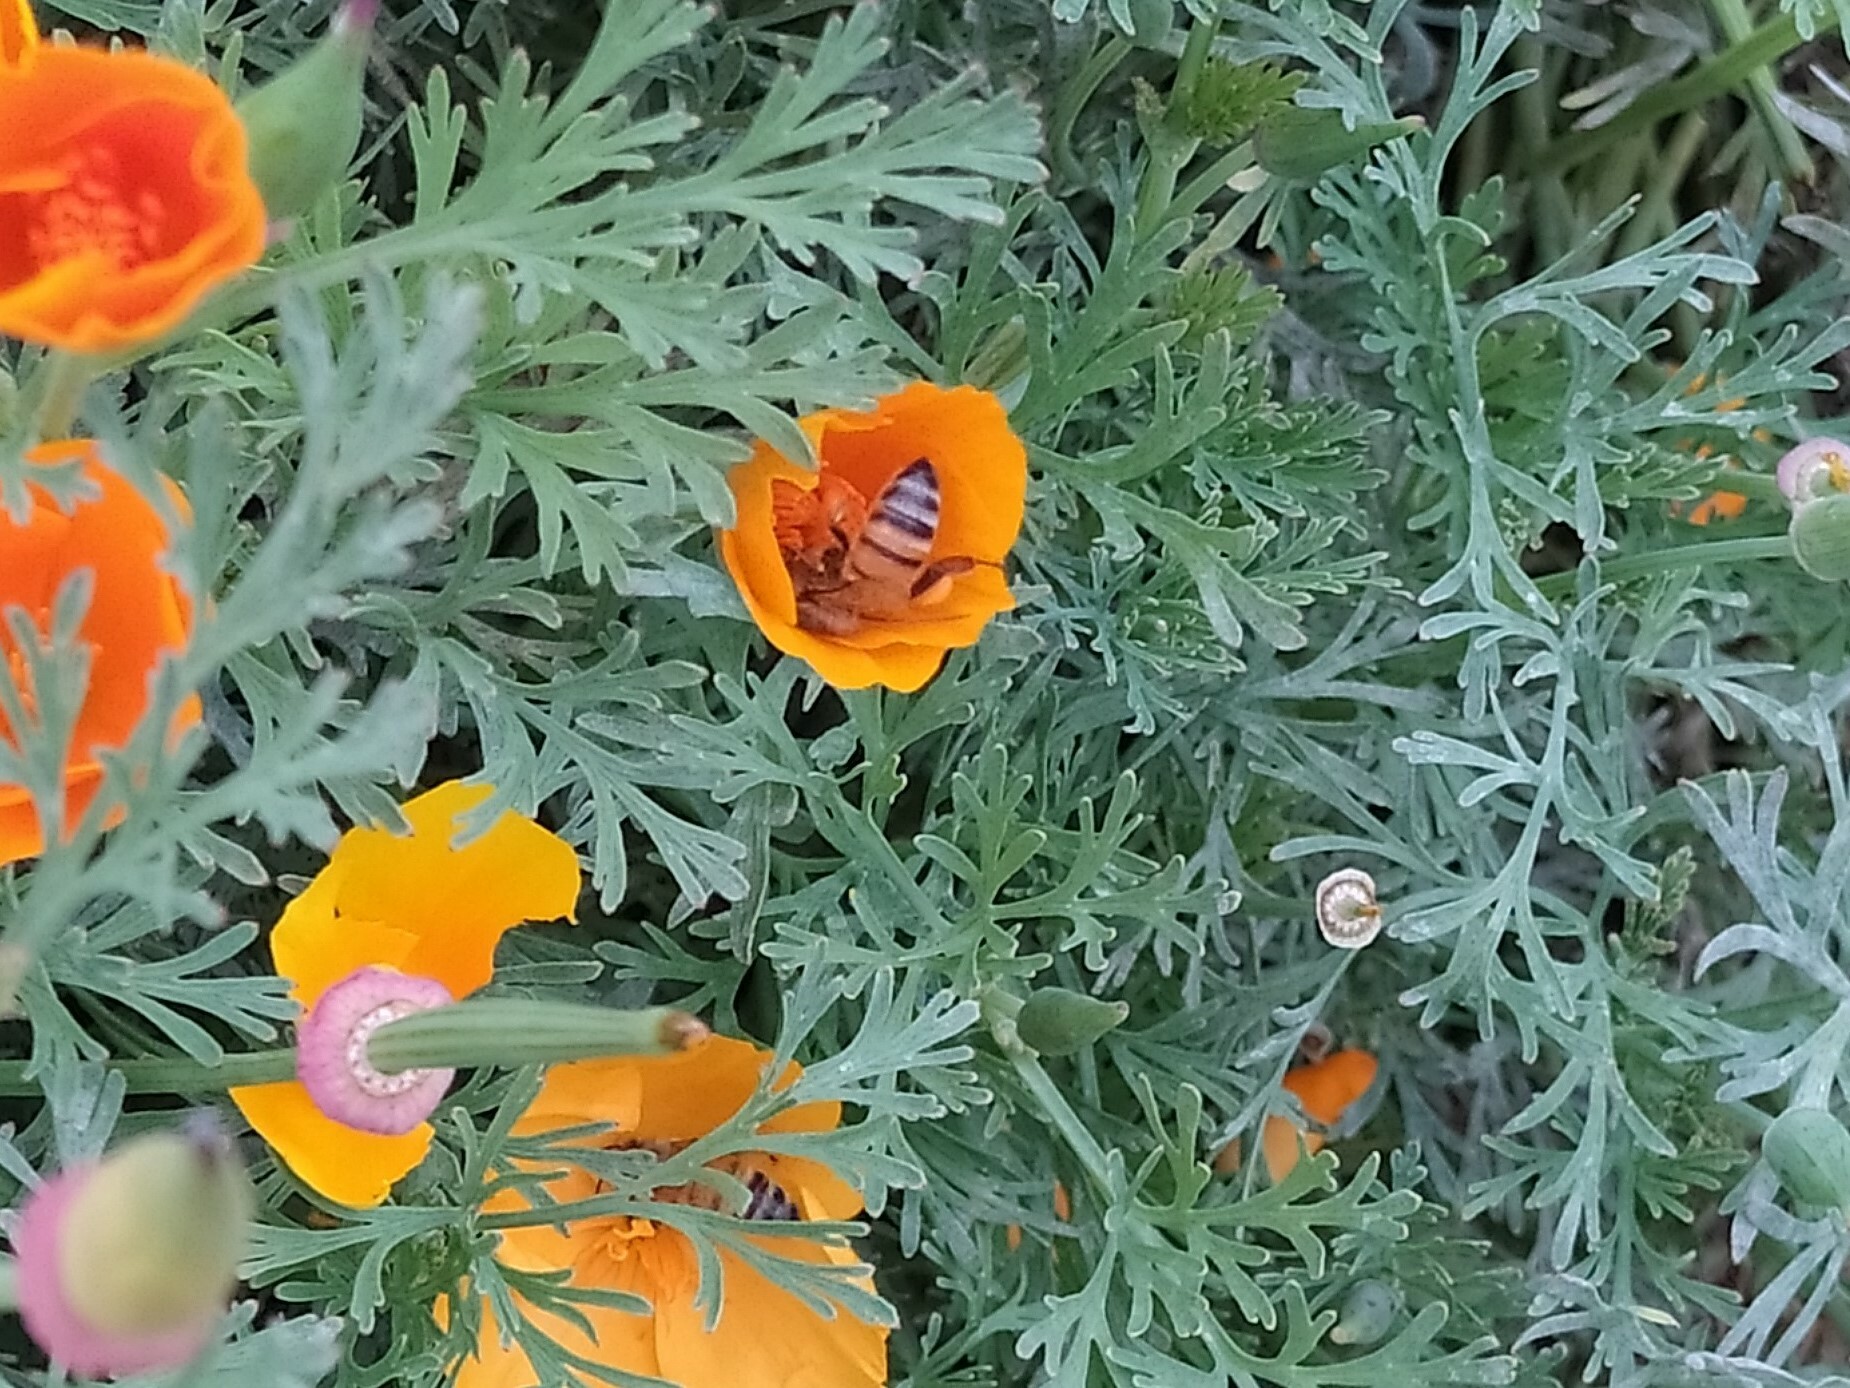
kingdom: Animalia
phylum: Arthropoda
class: Insecta
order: Hymenoptera
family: Apidae
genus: Apis
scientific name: Apis mellifera
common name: Honey bee
